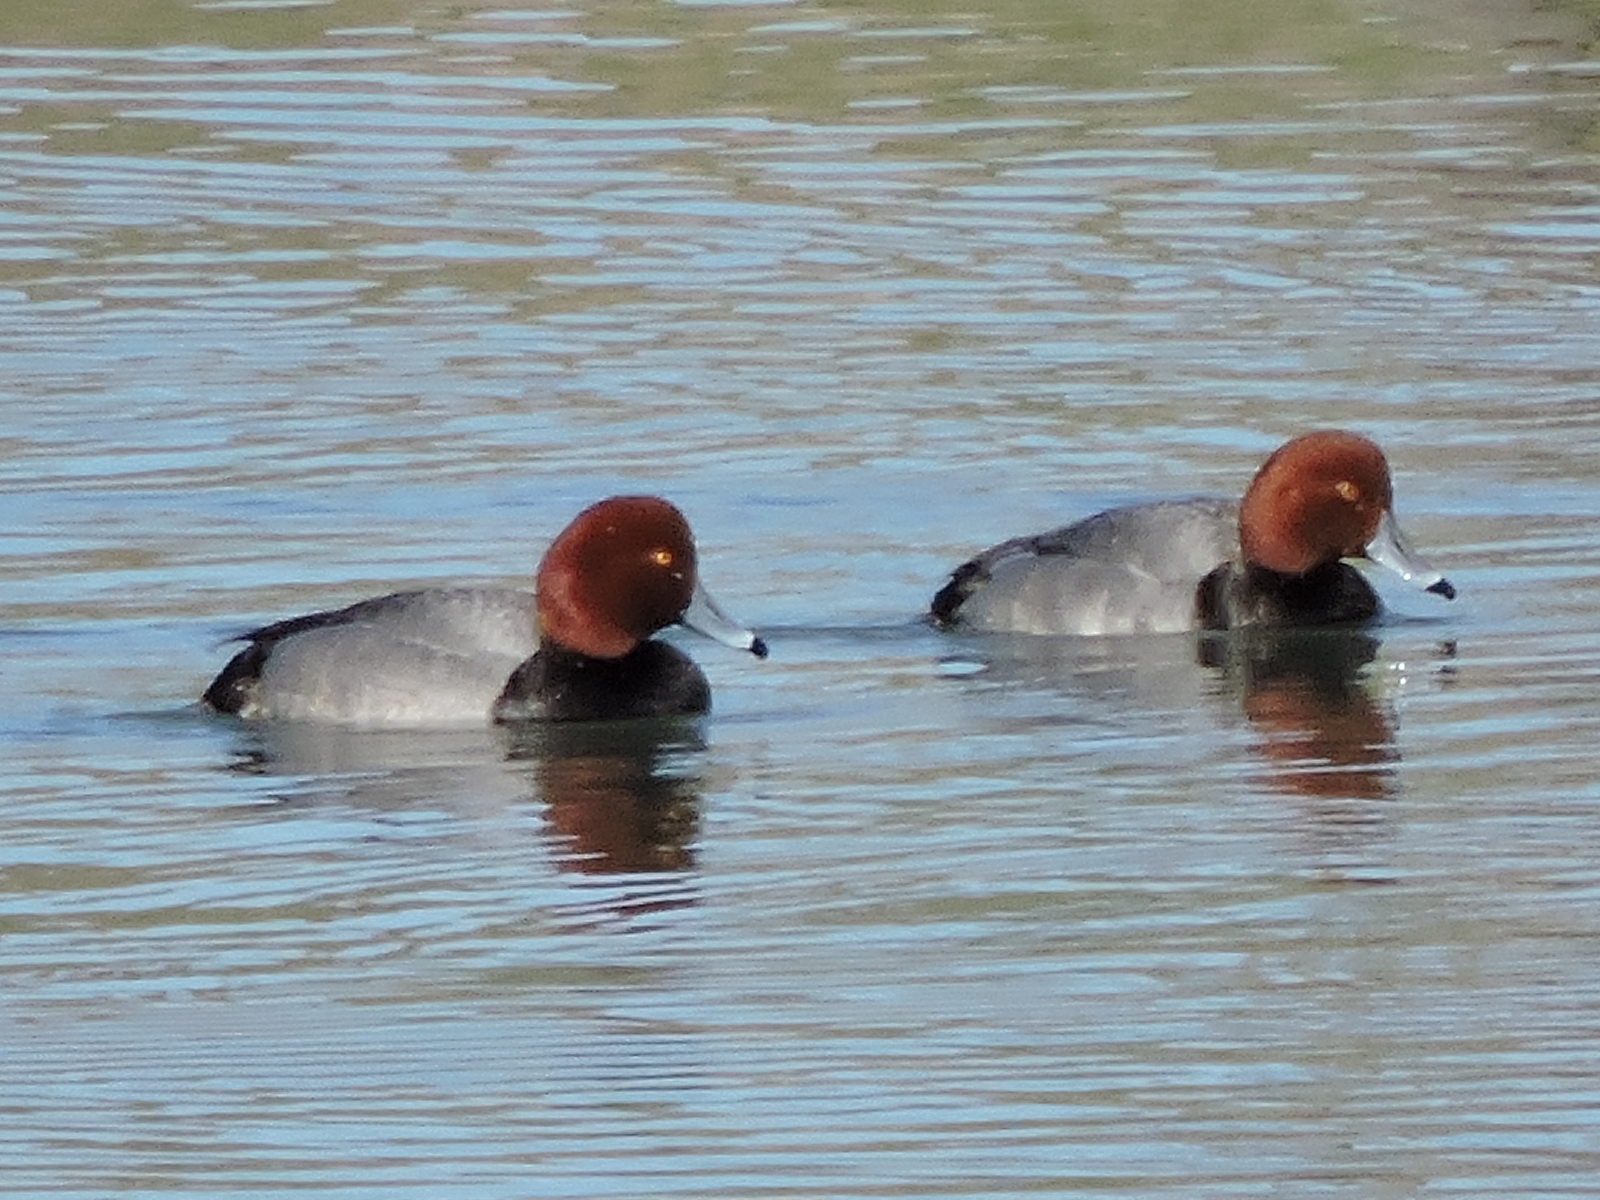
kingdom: Animalia
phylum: Chordata
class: Aves
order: Anseriformes
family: Anatidae
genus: Aythya
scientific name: Aythya americana
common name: Redhead
